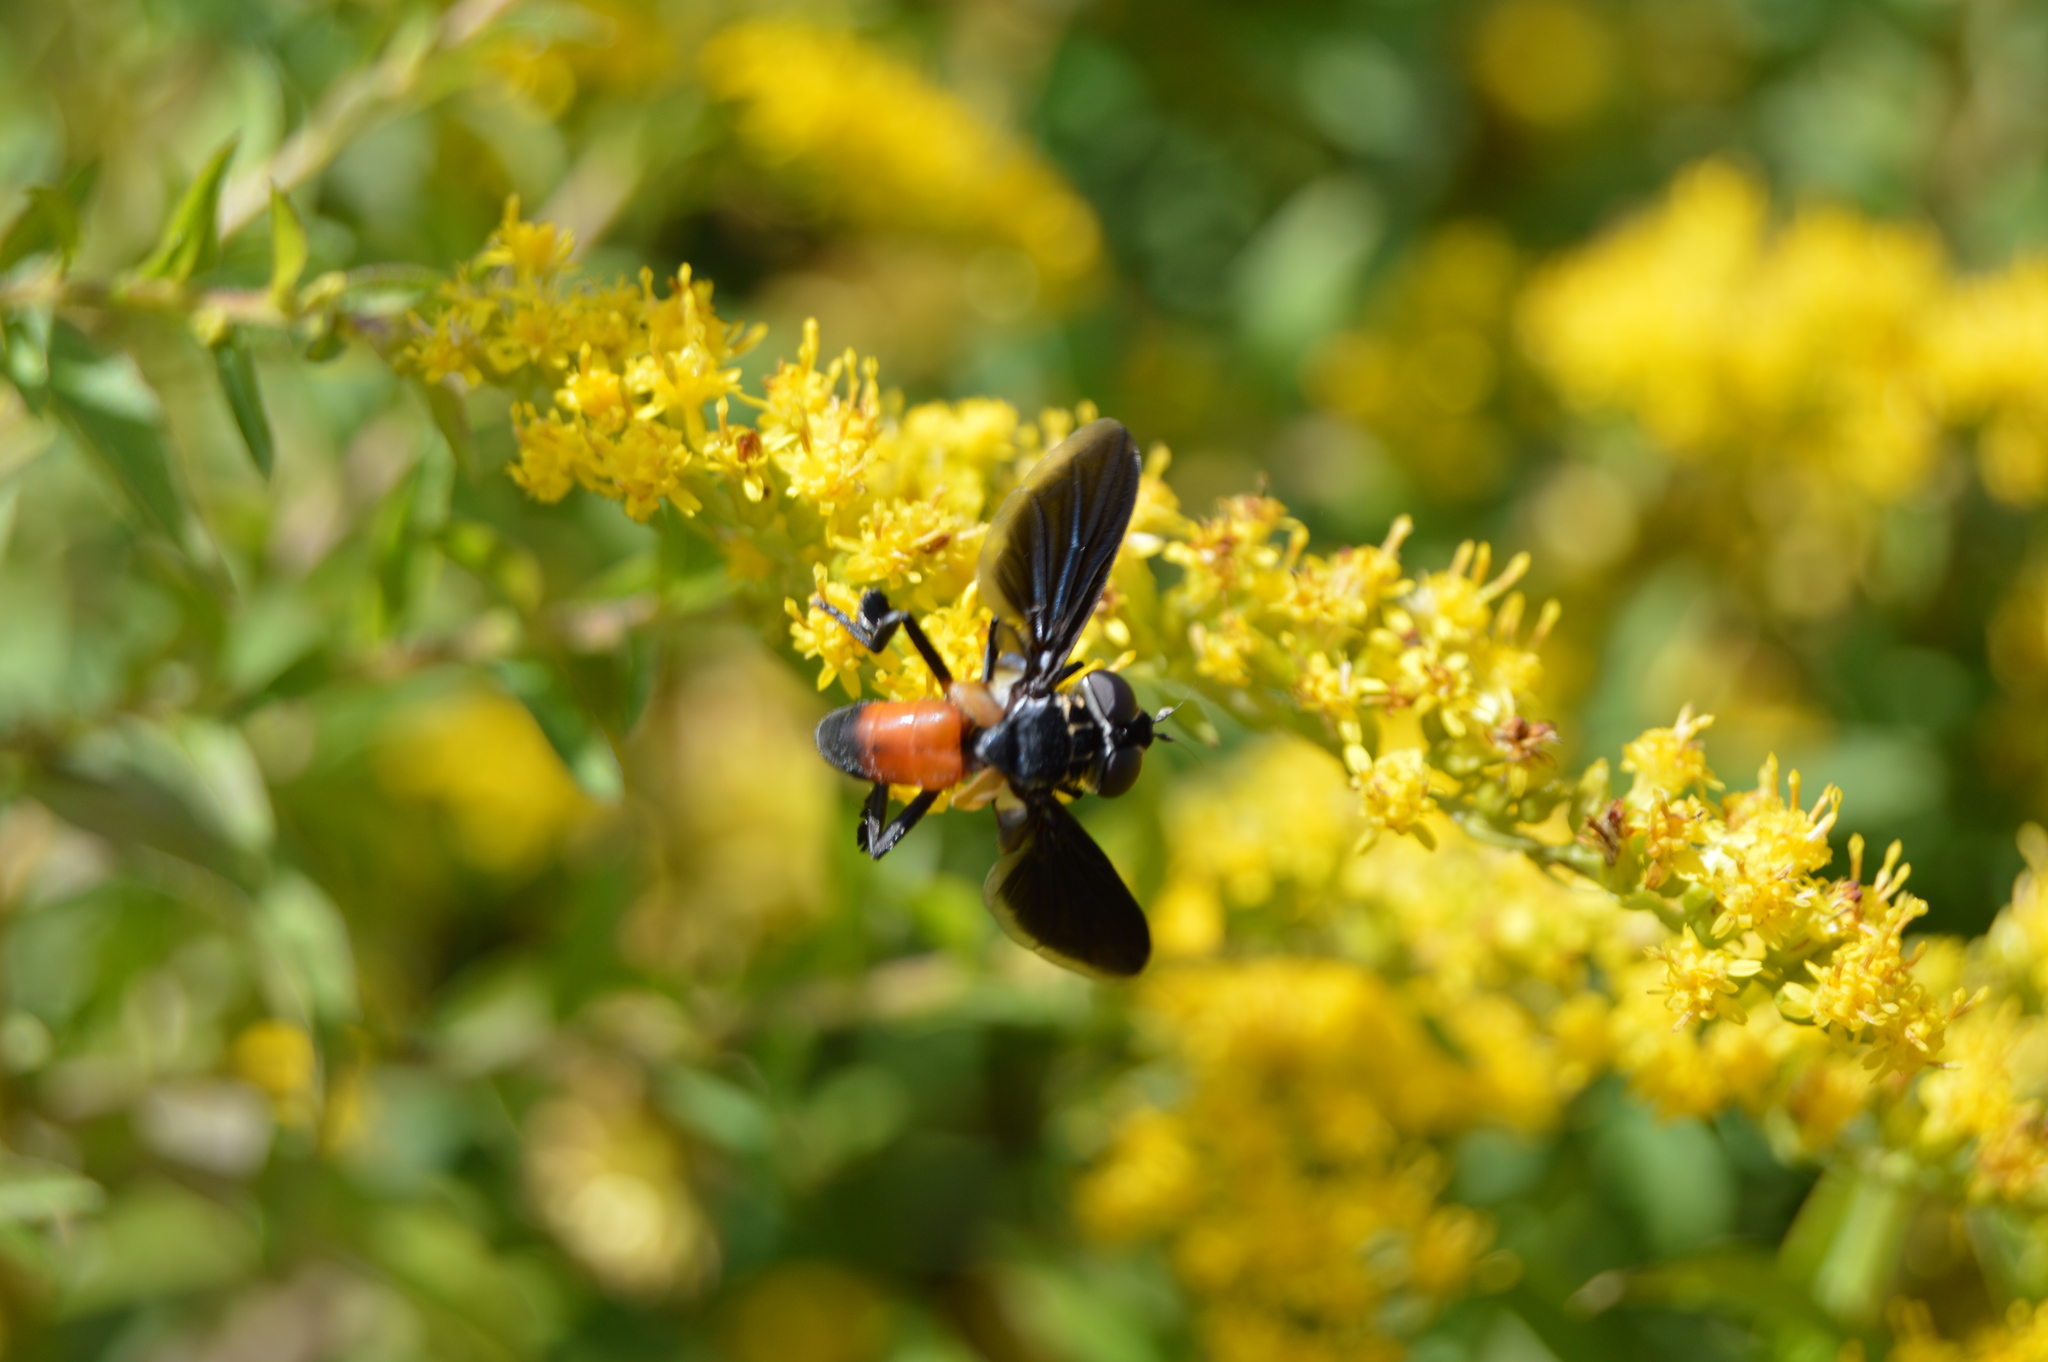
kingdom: Animalia
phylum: Arthropoda
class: Insecta
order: Diptera
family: Tachinidae
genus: Trichopoda
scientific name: Trichopoda pennipes
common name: Tachinid fly
